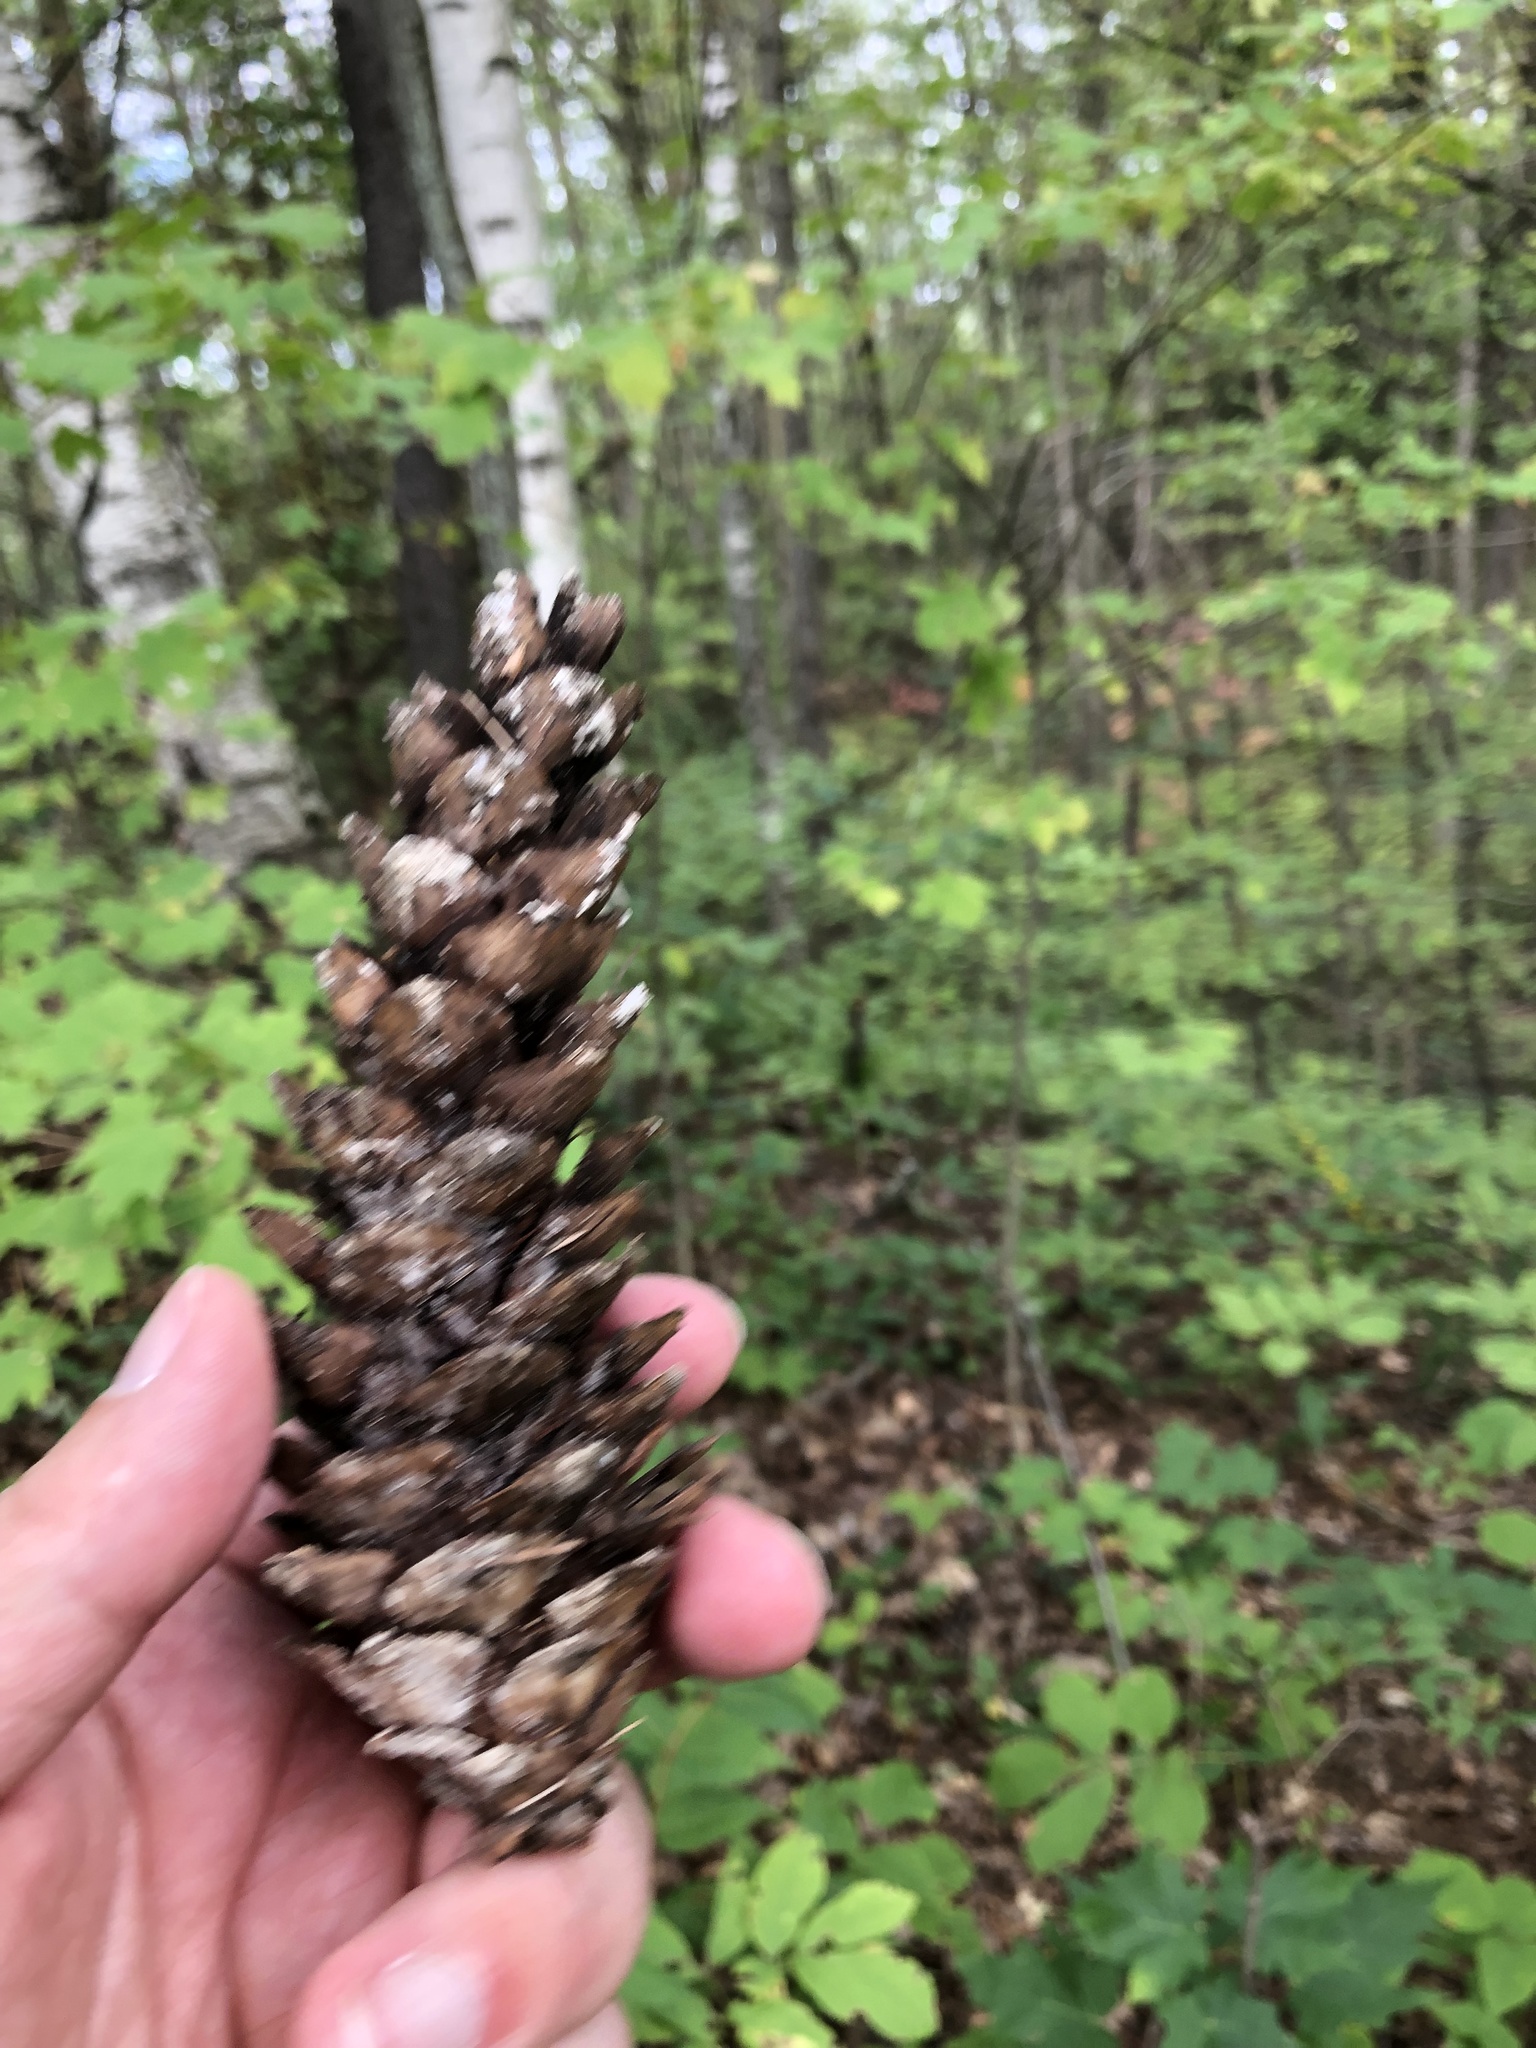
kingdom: Plantae
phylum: Tracheophyta
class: Pinopsida
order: Pinales
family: Pinaceae
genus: Pinus
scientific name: Pinus strobus
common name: Weymouth pine
